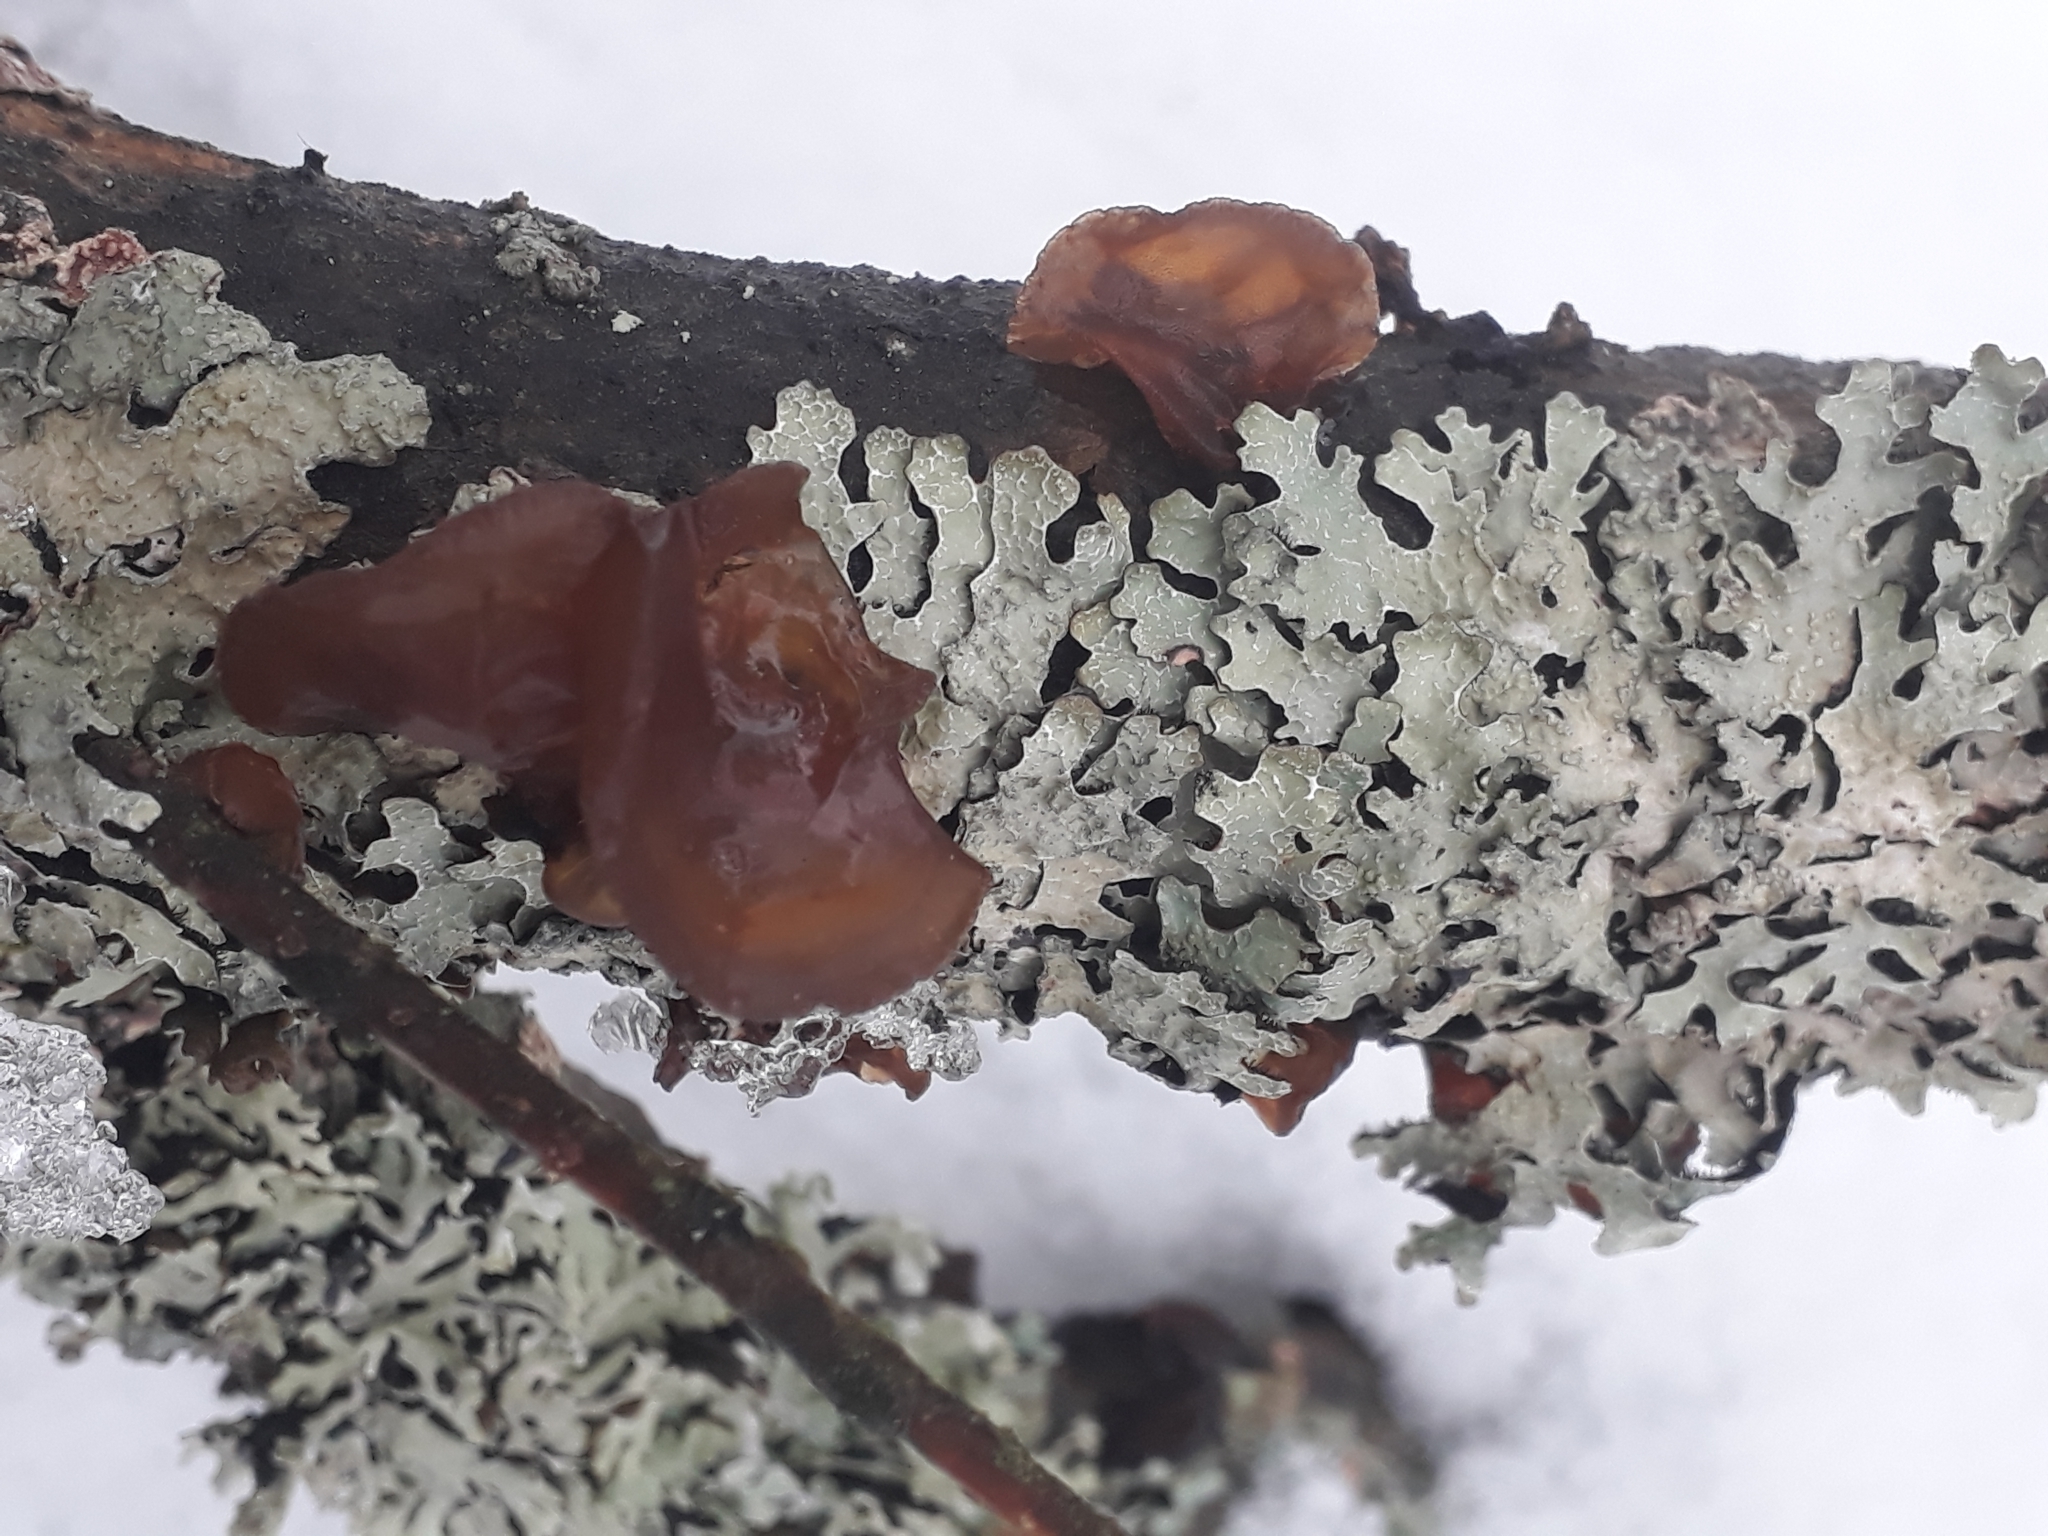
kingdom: Fungi
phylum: Basidiomycota
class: Agaricomycetes
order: Auriculariales
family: Auriculariaceae
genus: Exidia
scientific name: Exidia recisa
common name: Amber jelly
